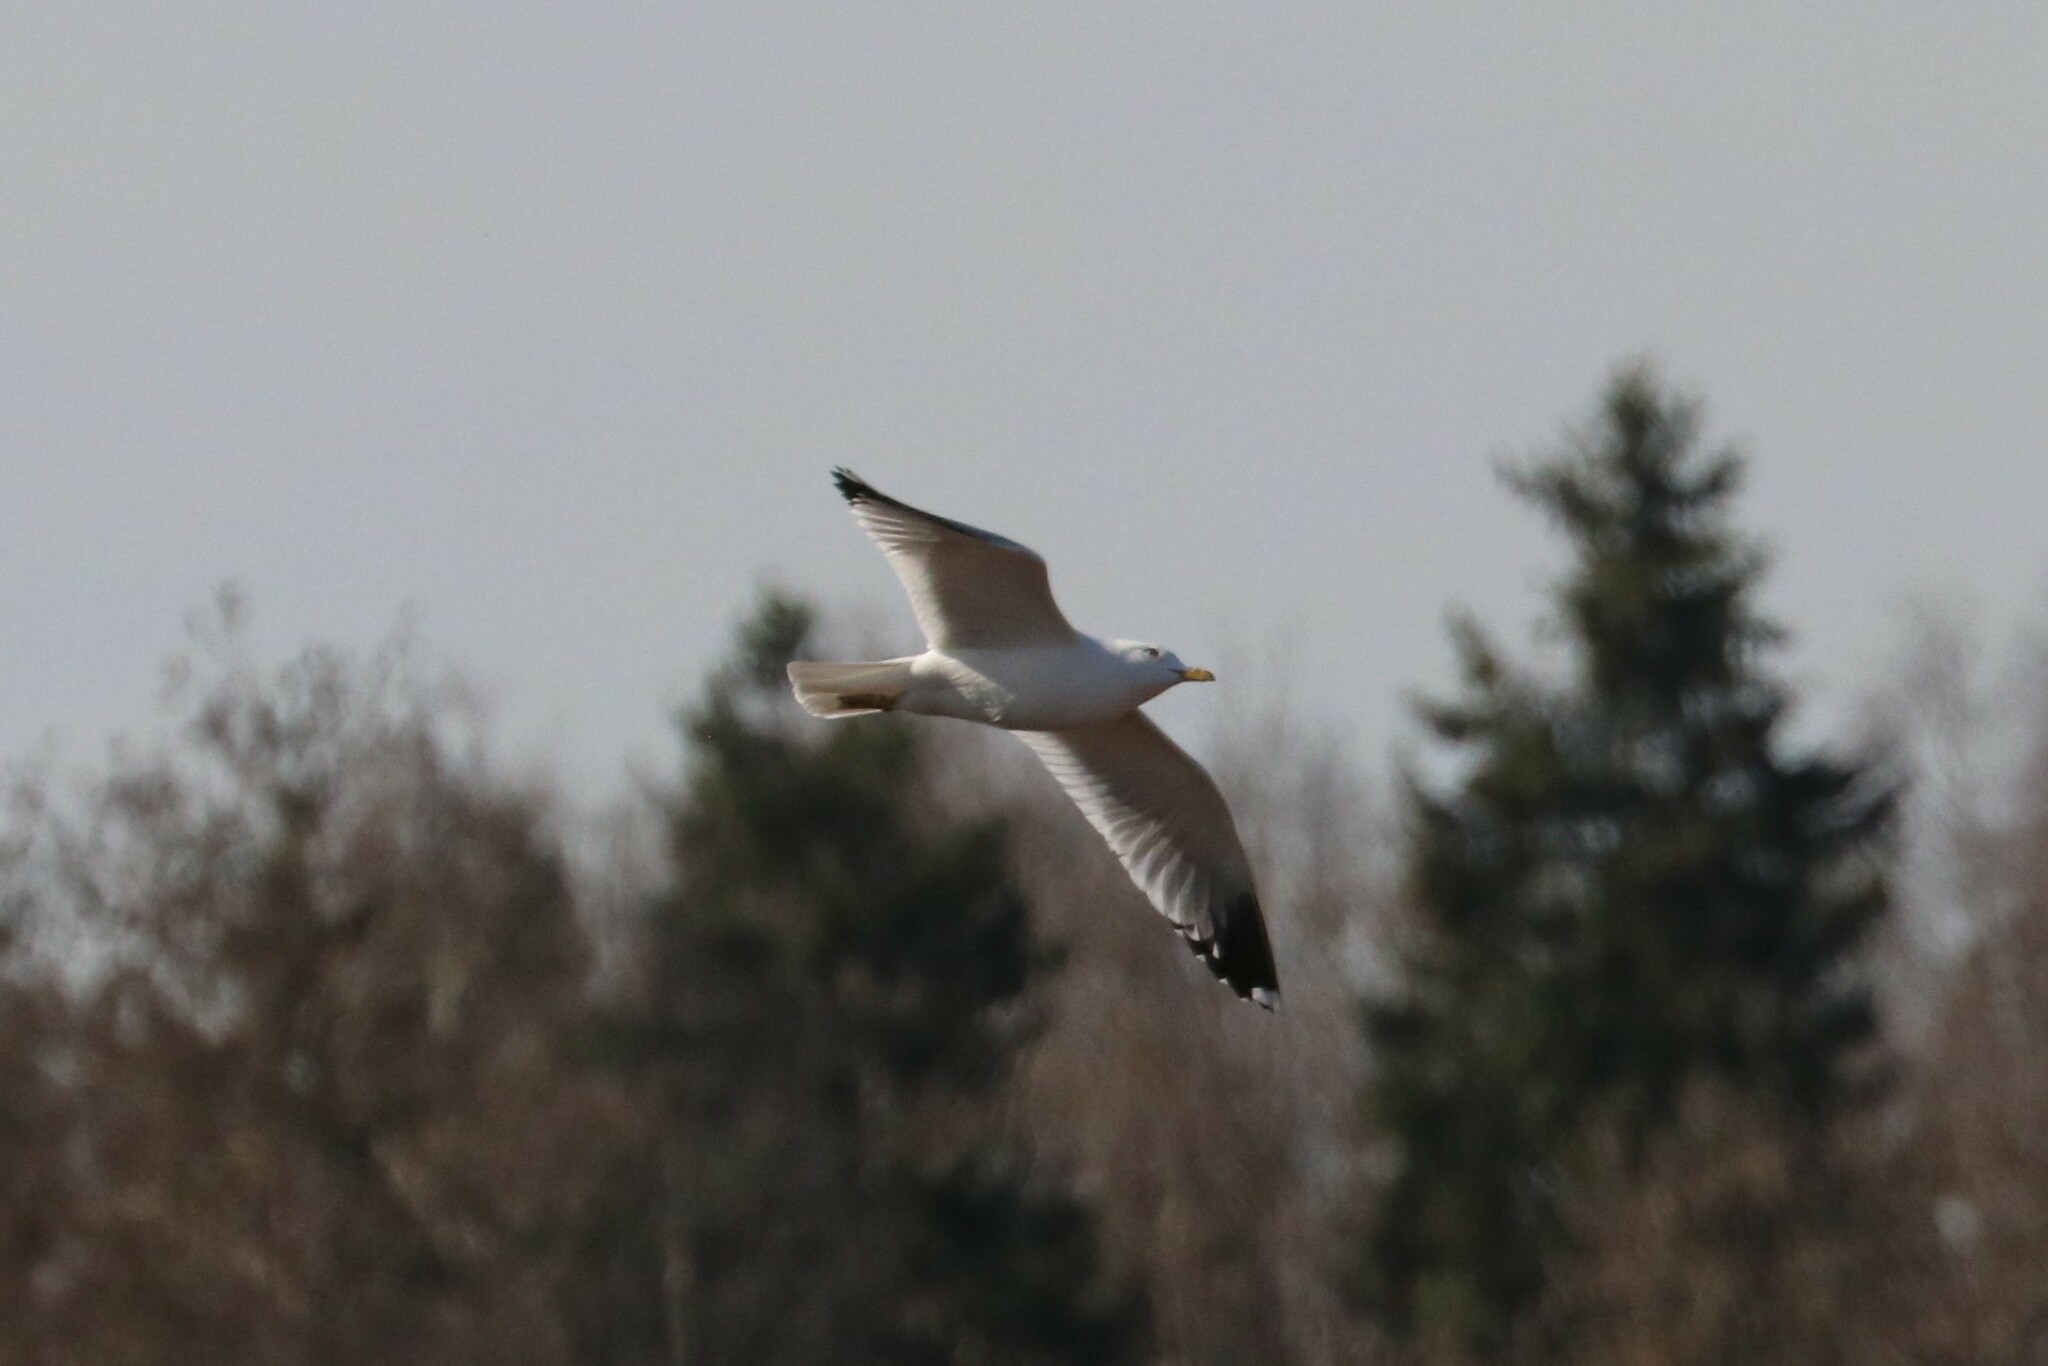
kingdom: Animalia
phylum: Chordata
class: Aves
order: Charadriiformes
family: Laridae
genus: Larus
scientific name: Larus canus
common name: Mew gull
